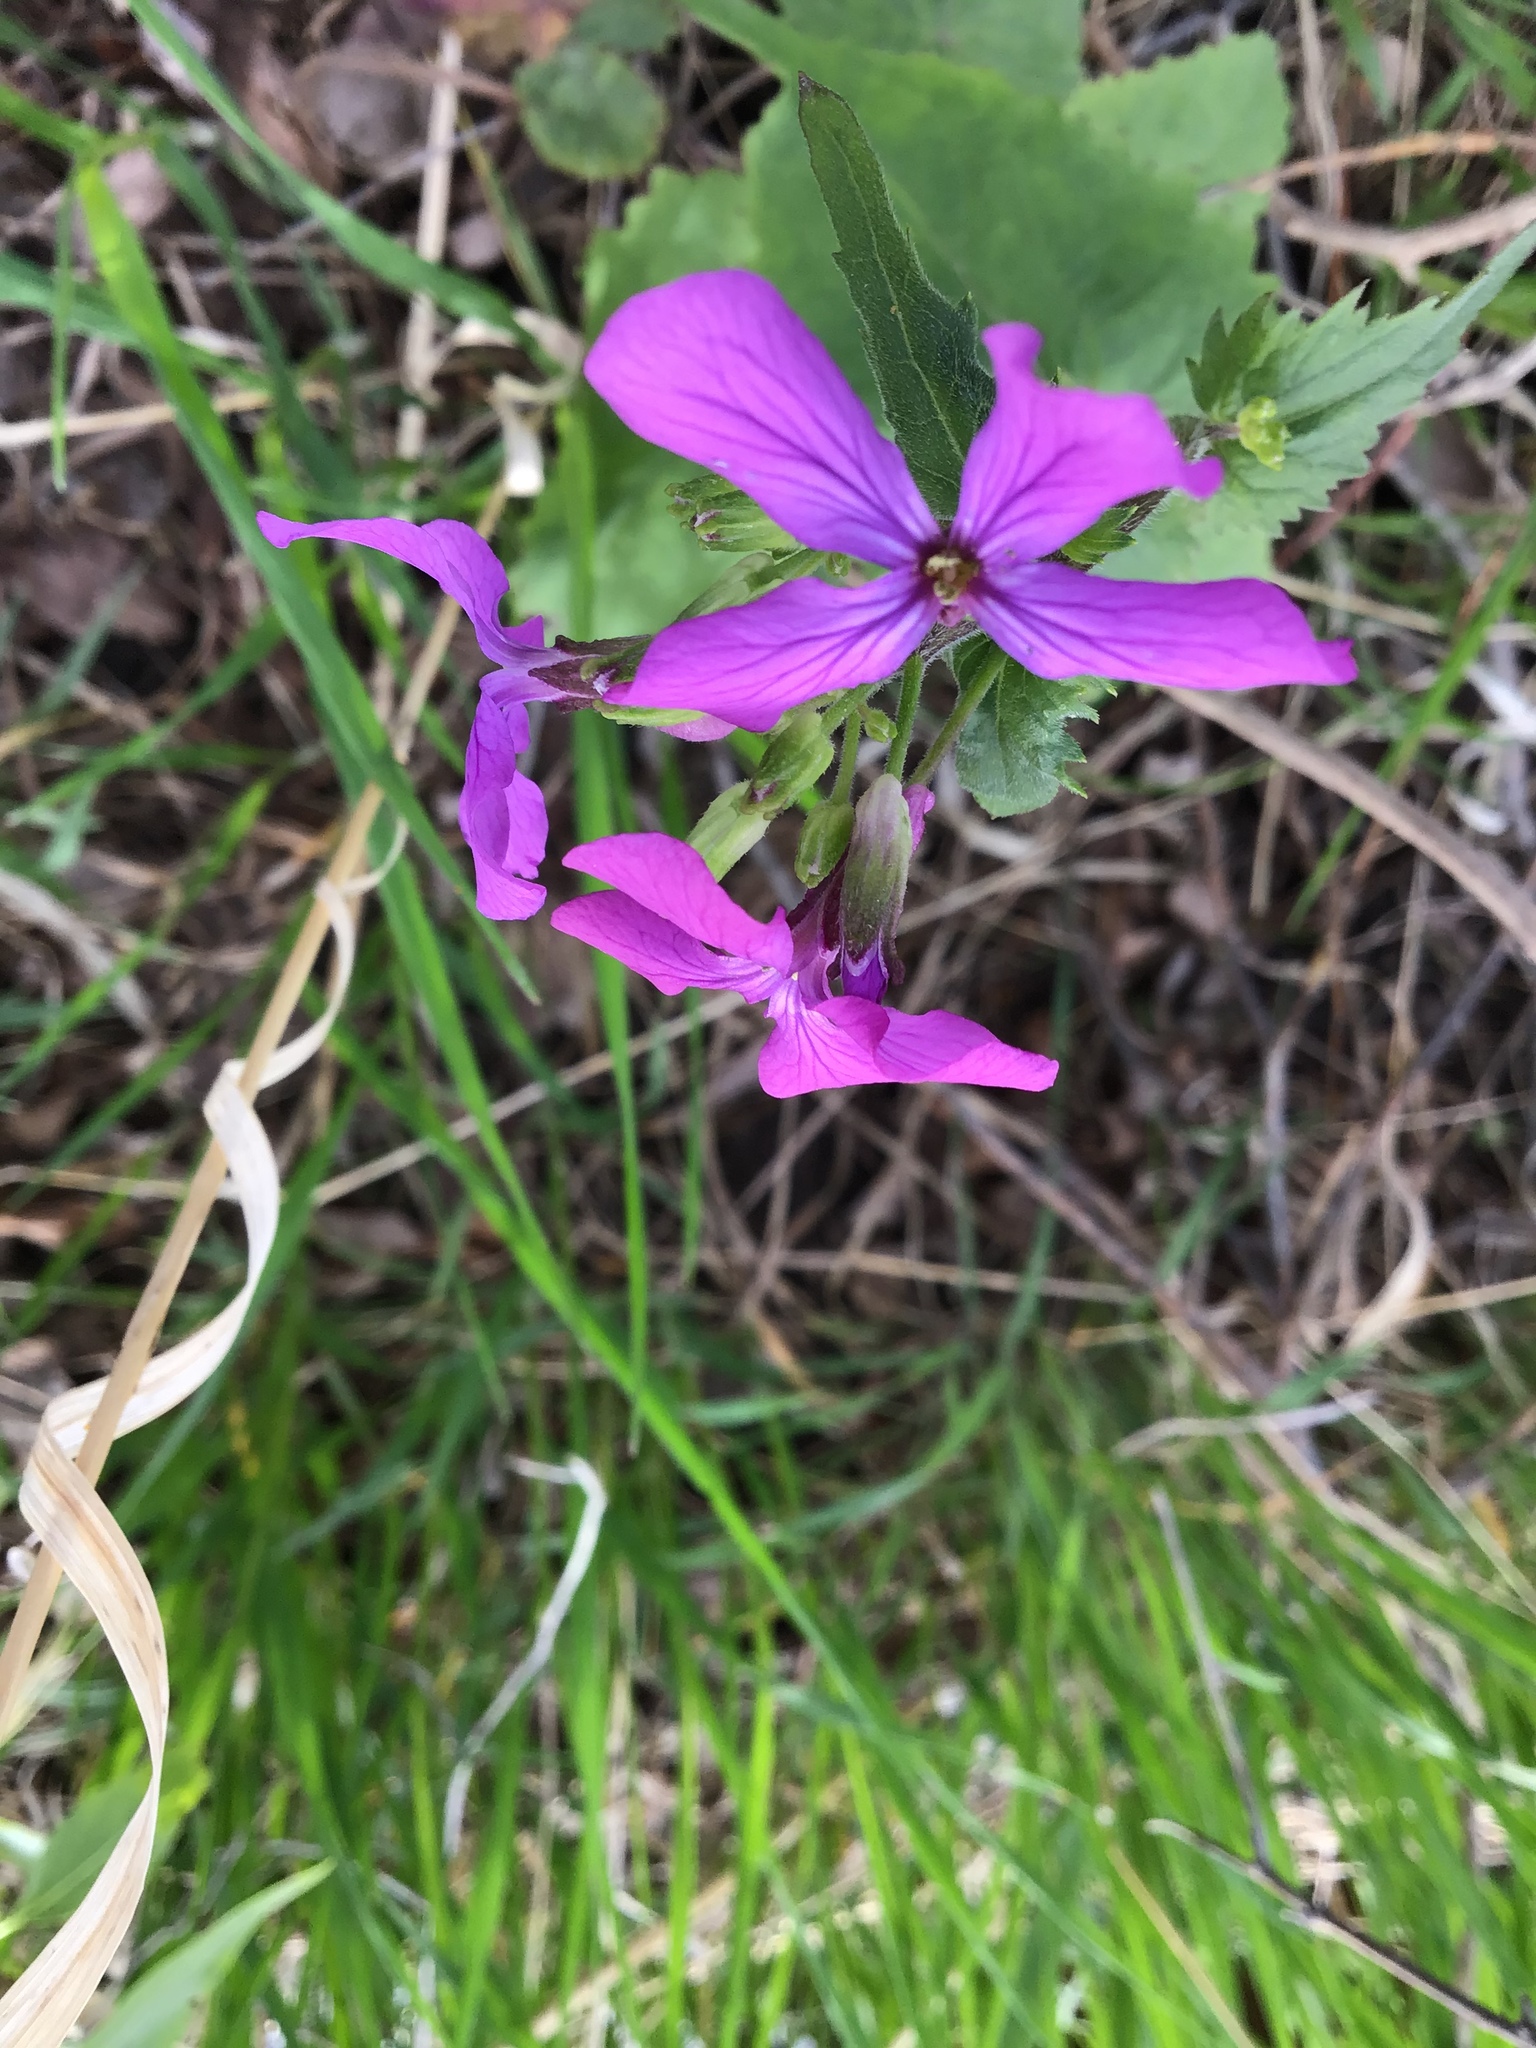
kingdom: Plantae
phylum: Tracheophyta
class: Magnoliopsida
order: Brassicales
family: Brassicaceae
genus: Lunaria
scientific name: Lunaria annua
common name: Honesty
